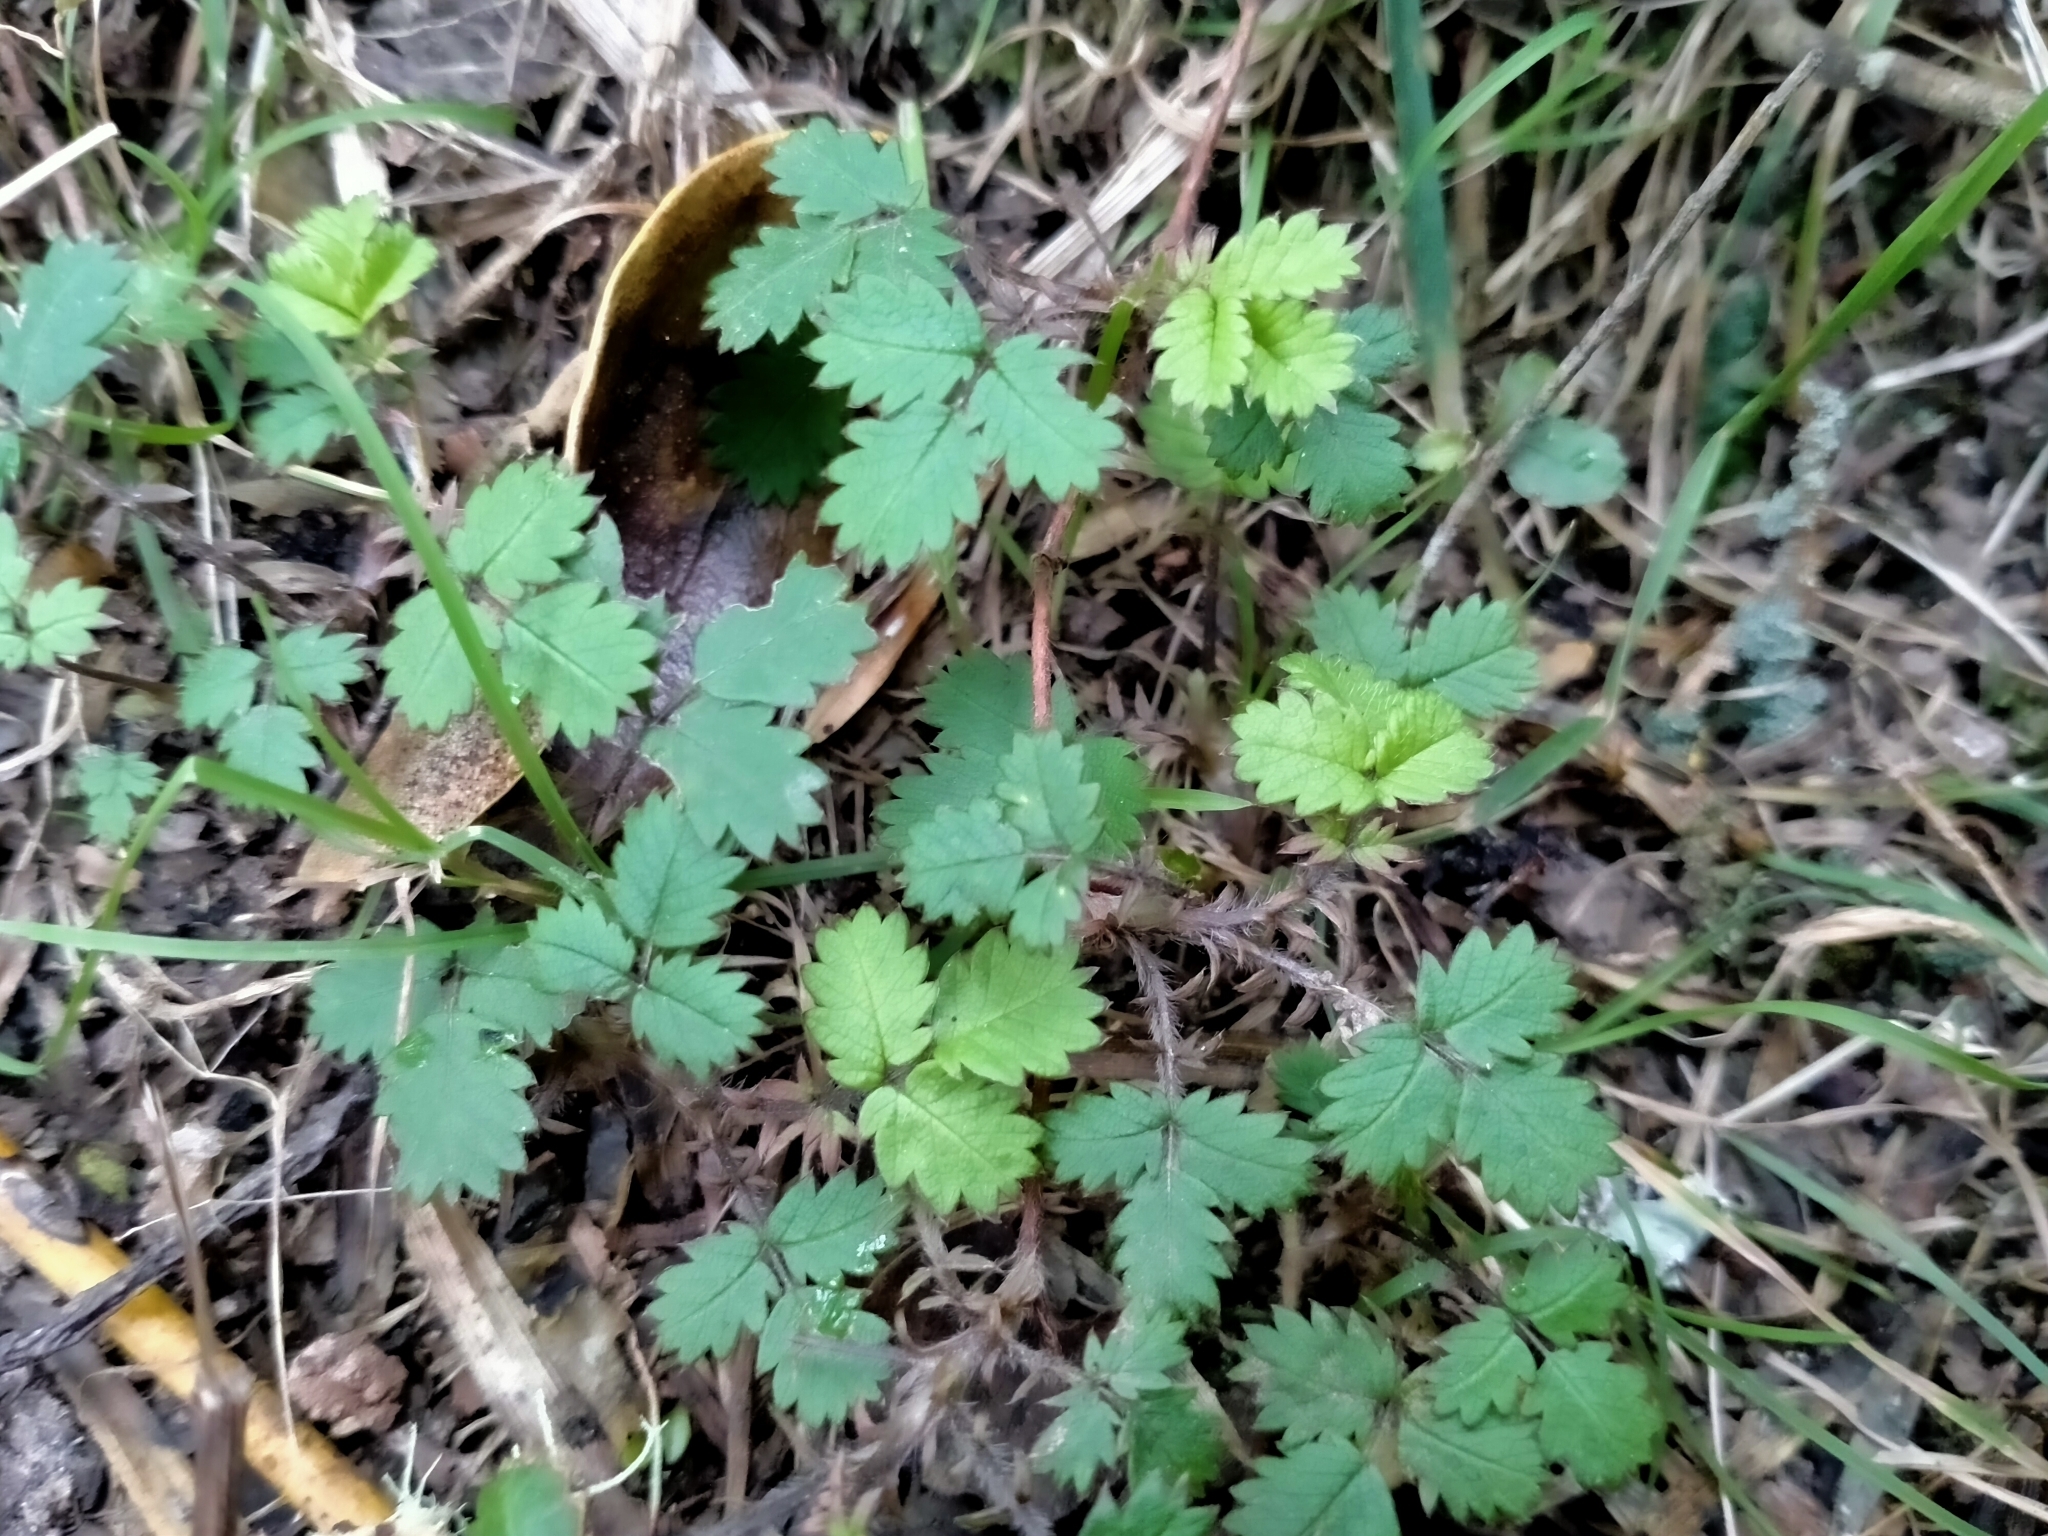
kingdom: Plantae
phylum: Tracheophyta
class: Magnoliopsida
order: Rosales
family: Rosaceae
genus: Acaena
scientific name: Acaena juvenca
